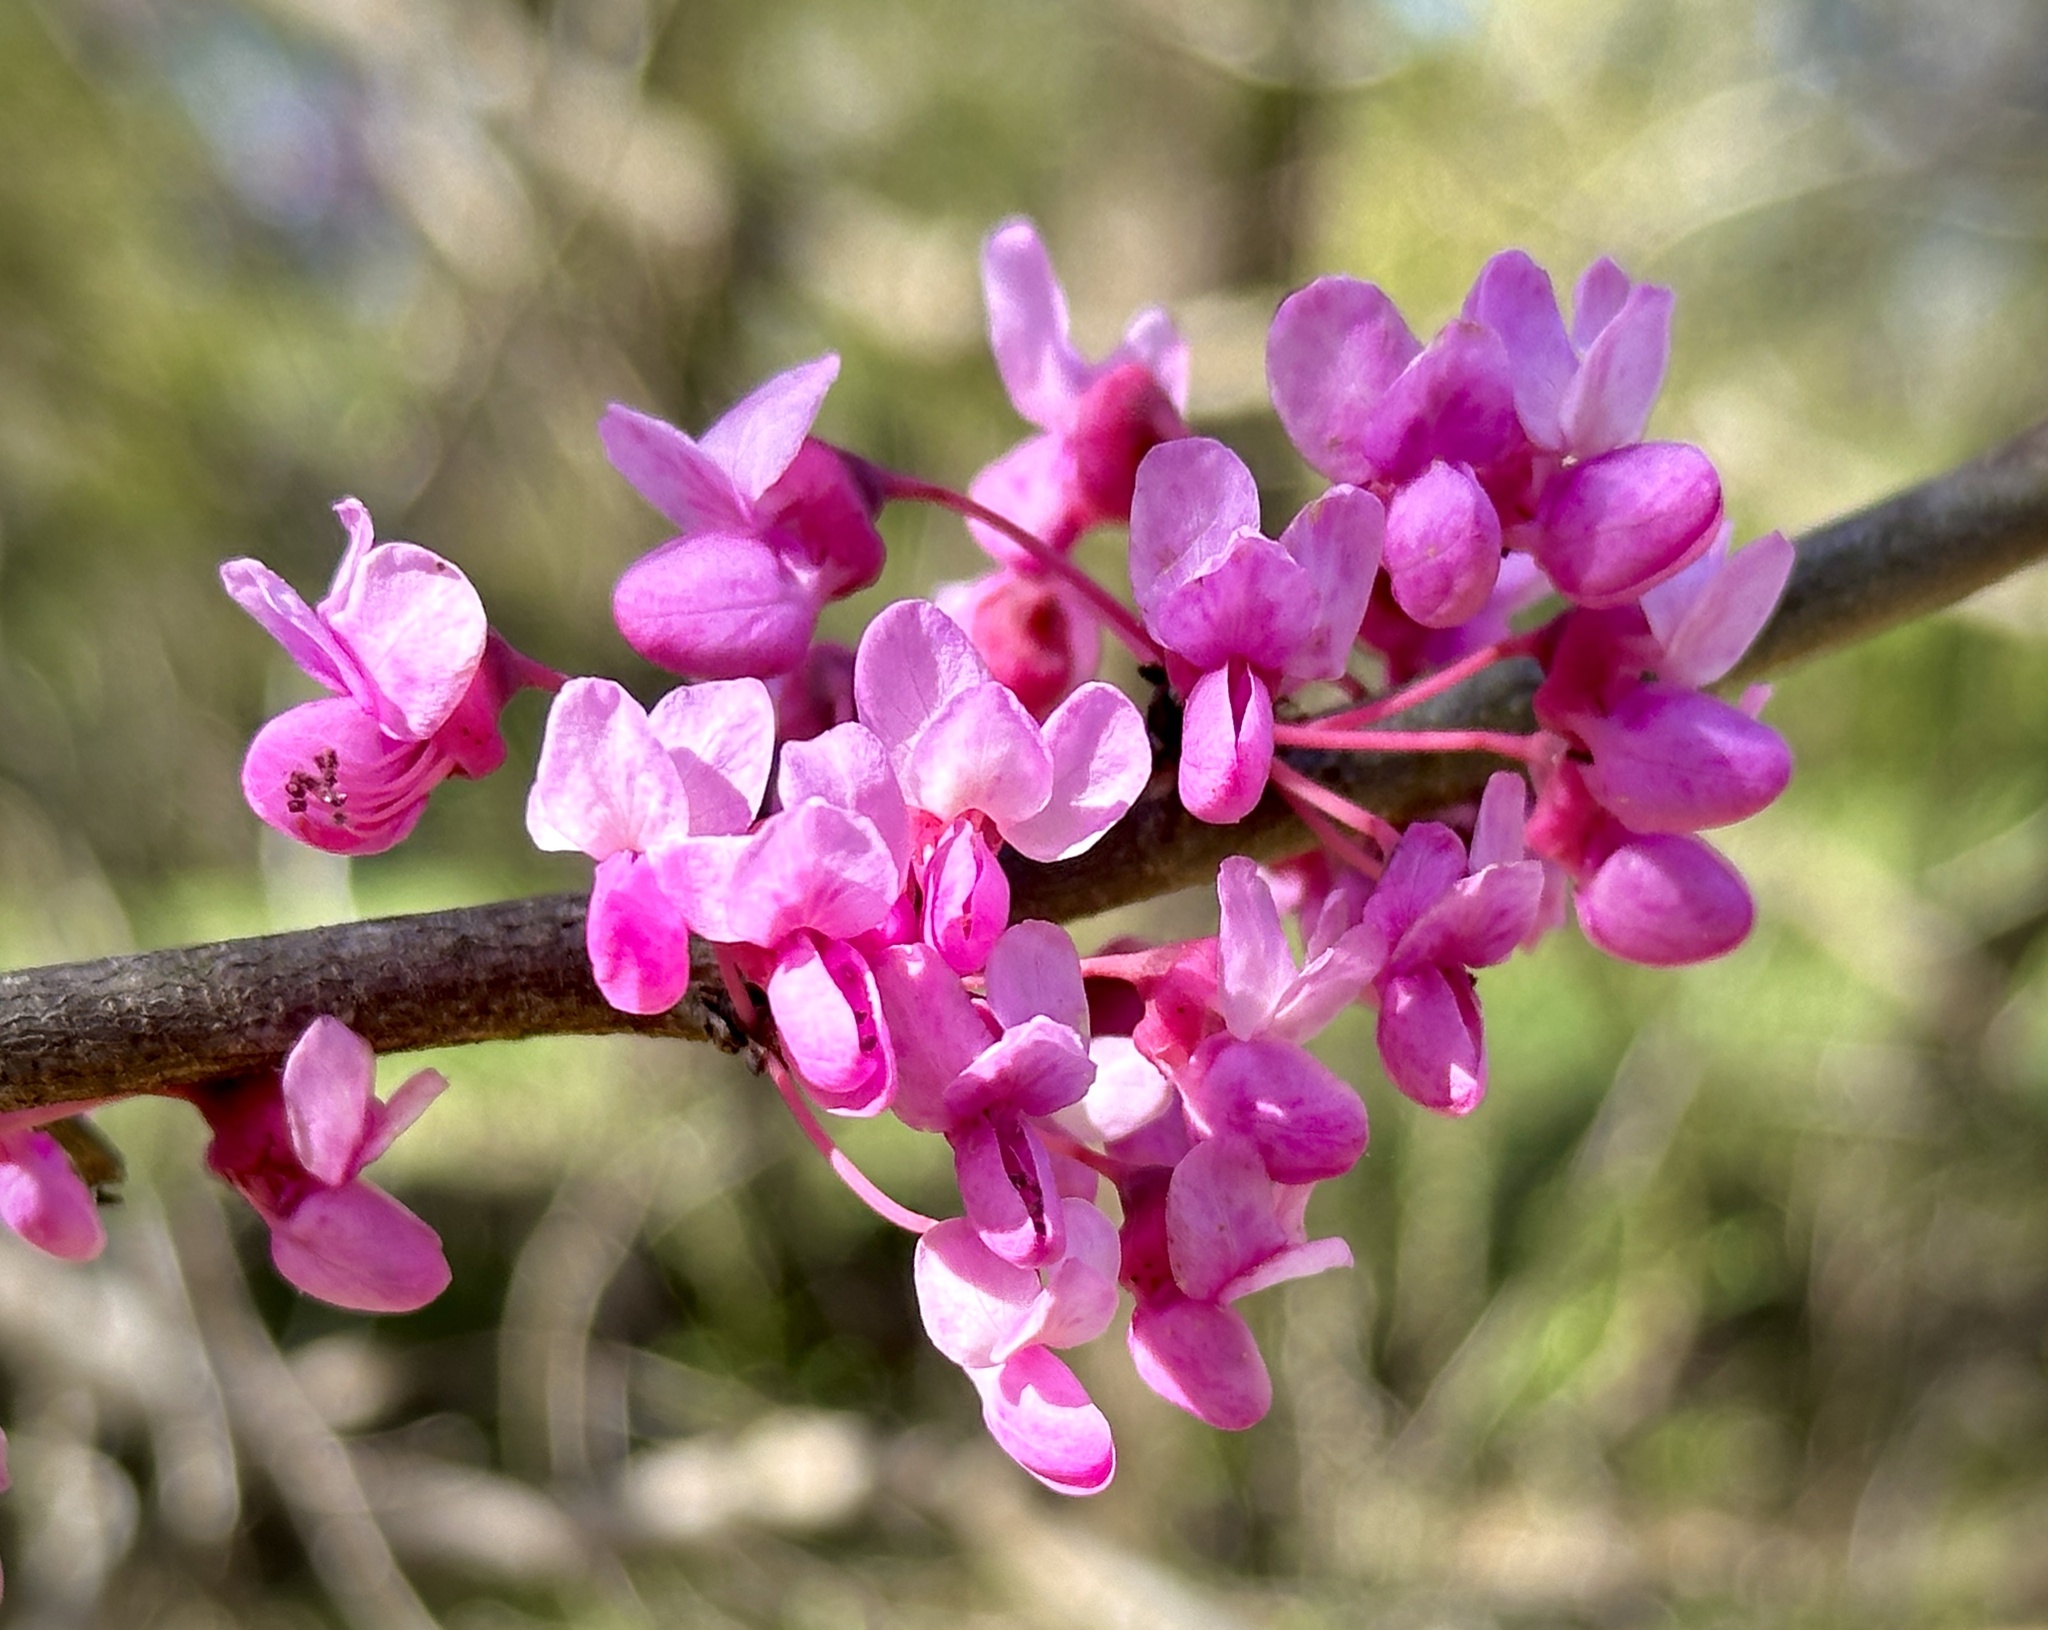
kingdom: Plantae
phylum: Tracheophyta
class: Magnoliopsida
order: Fabales
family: Fabaceae
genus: Cercis
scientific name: Cercis canadensis
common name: Eastern redbud
